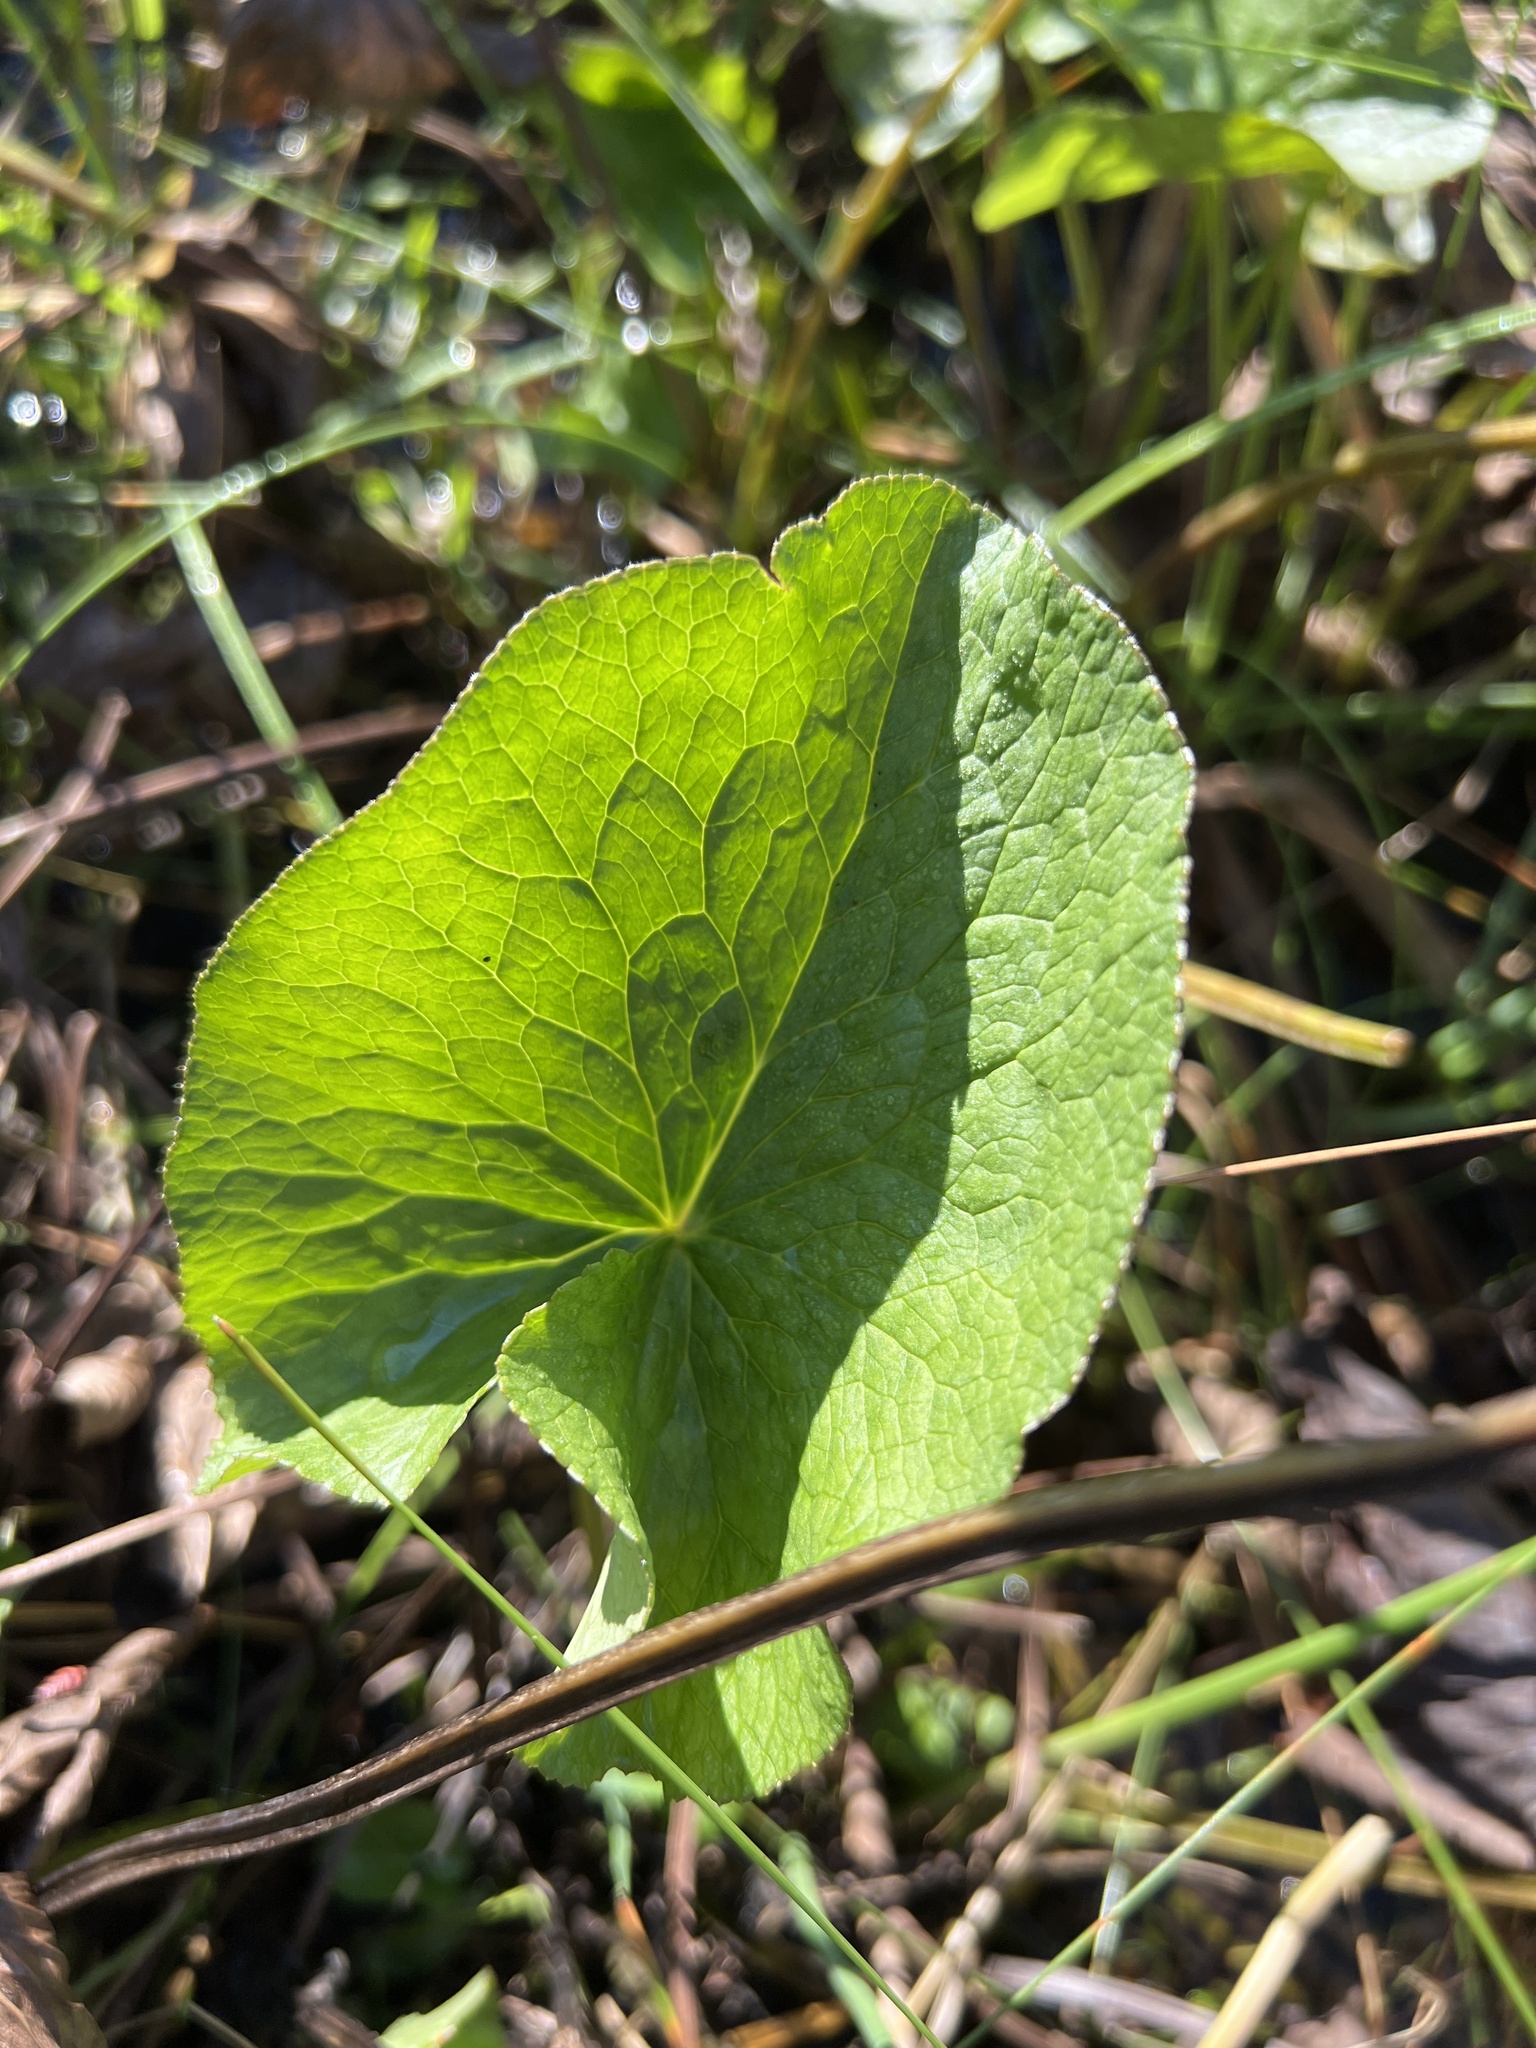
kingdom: Plantae
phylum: Tracheophyta
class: Magnoliopsida
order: Ranunculales
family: Ranunculaceae
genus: Caltha
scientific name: Caltha palustris
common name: Marsh marigold
